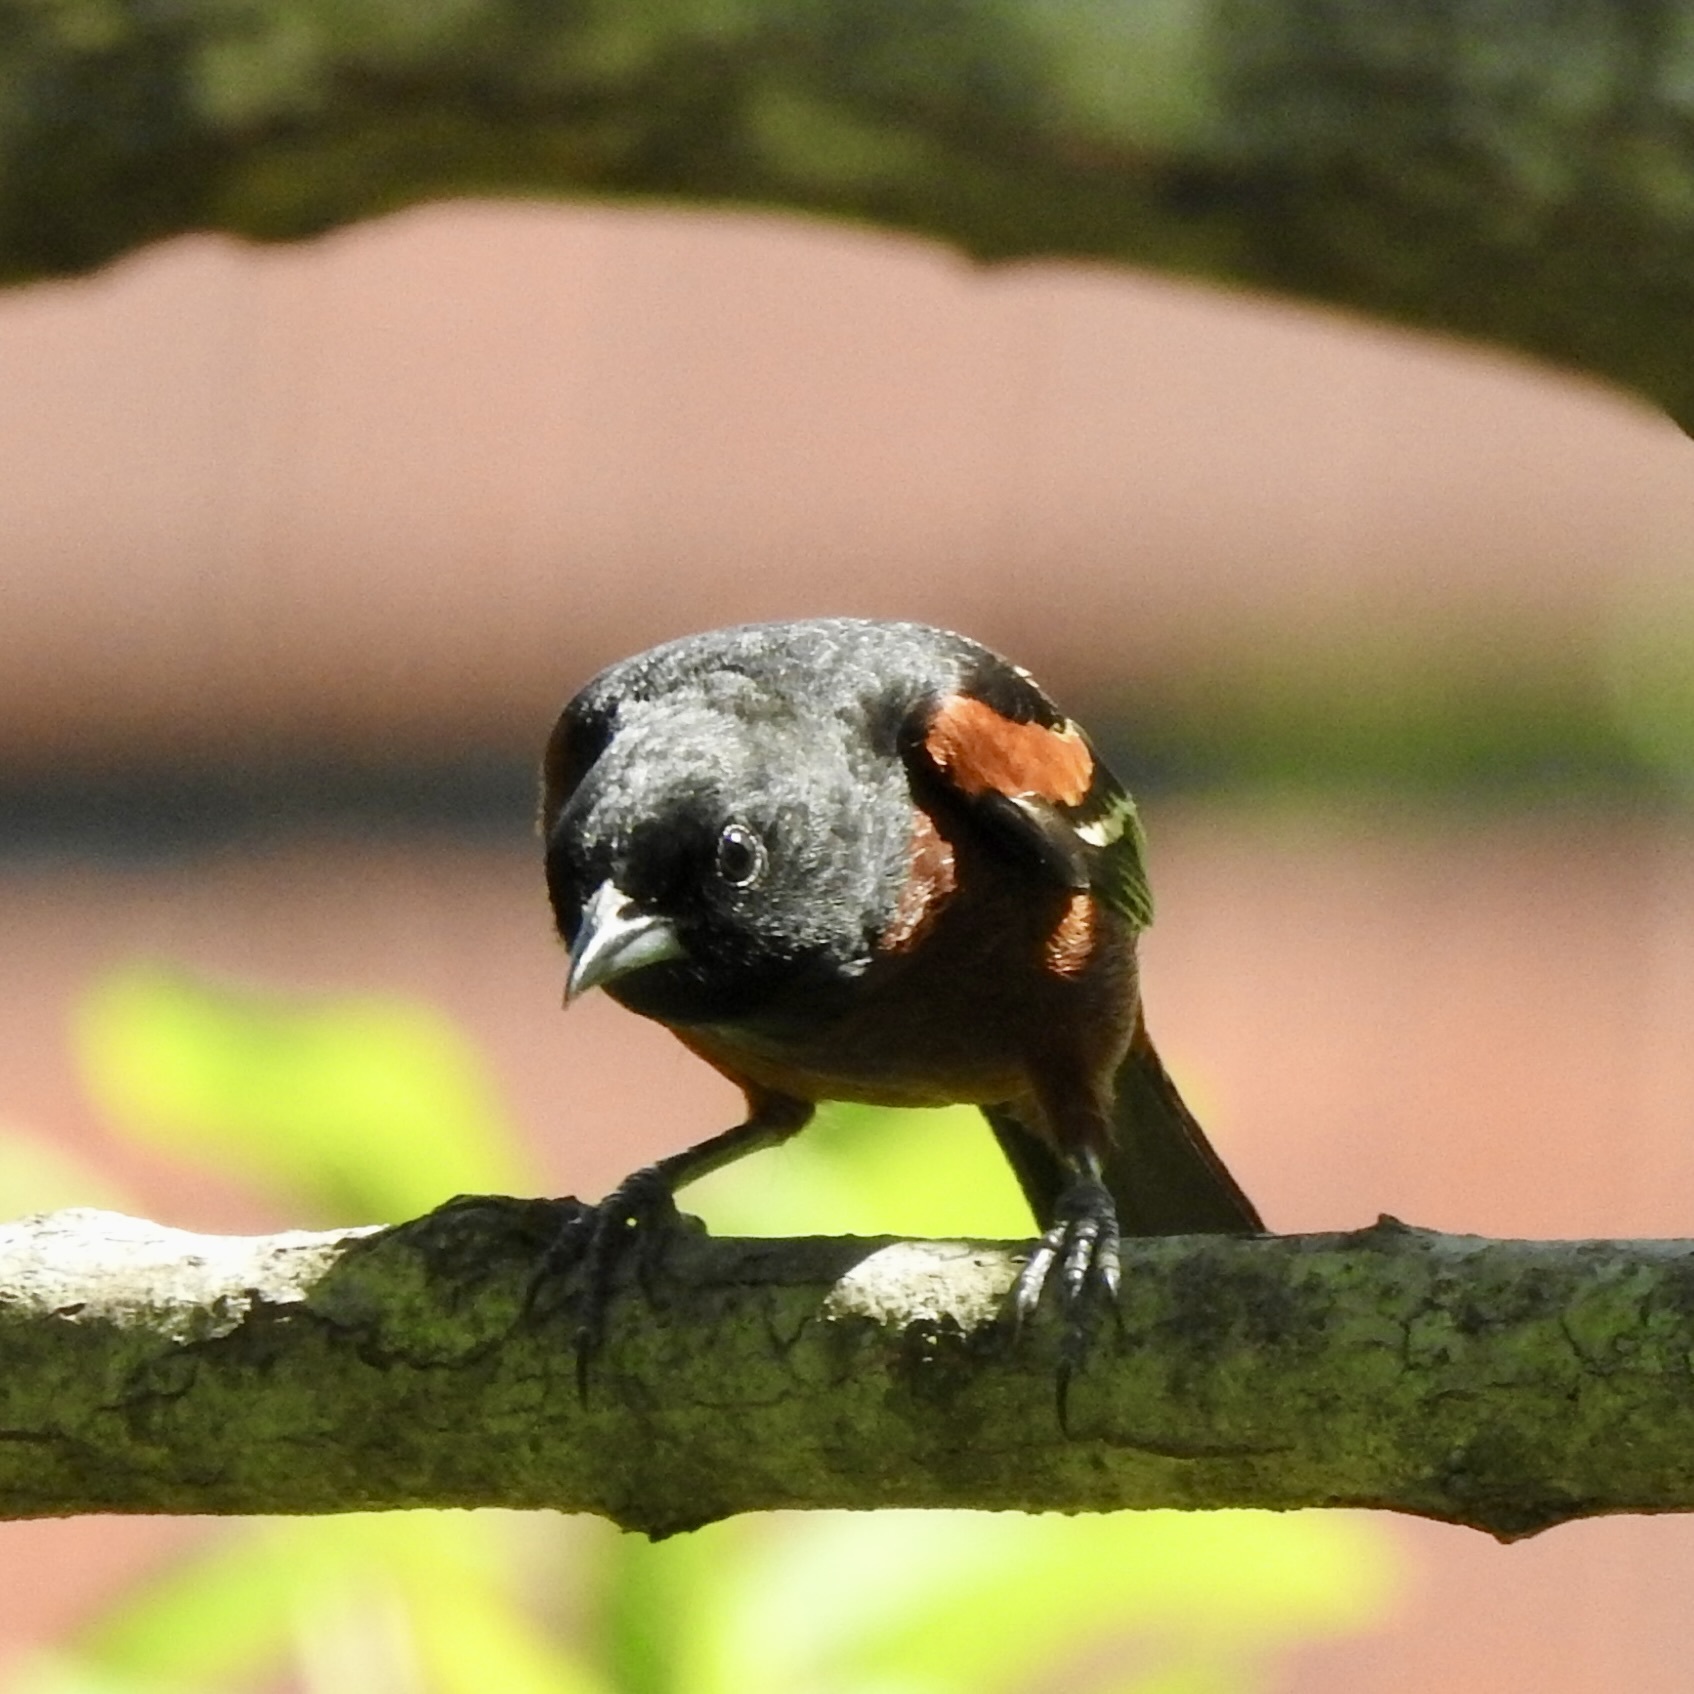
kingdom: Animalia
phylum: Chordata
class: Aves
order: Passeriformes
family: Icteridae
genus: Icterus
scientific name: Icterus spurius
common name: Orchard oriole
